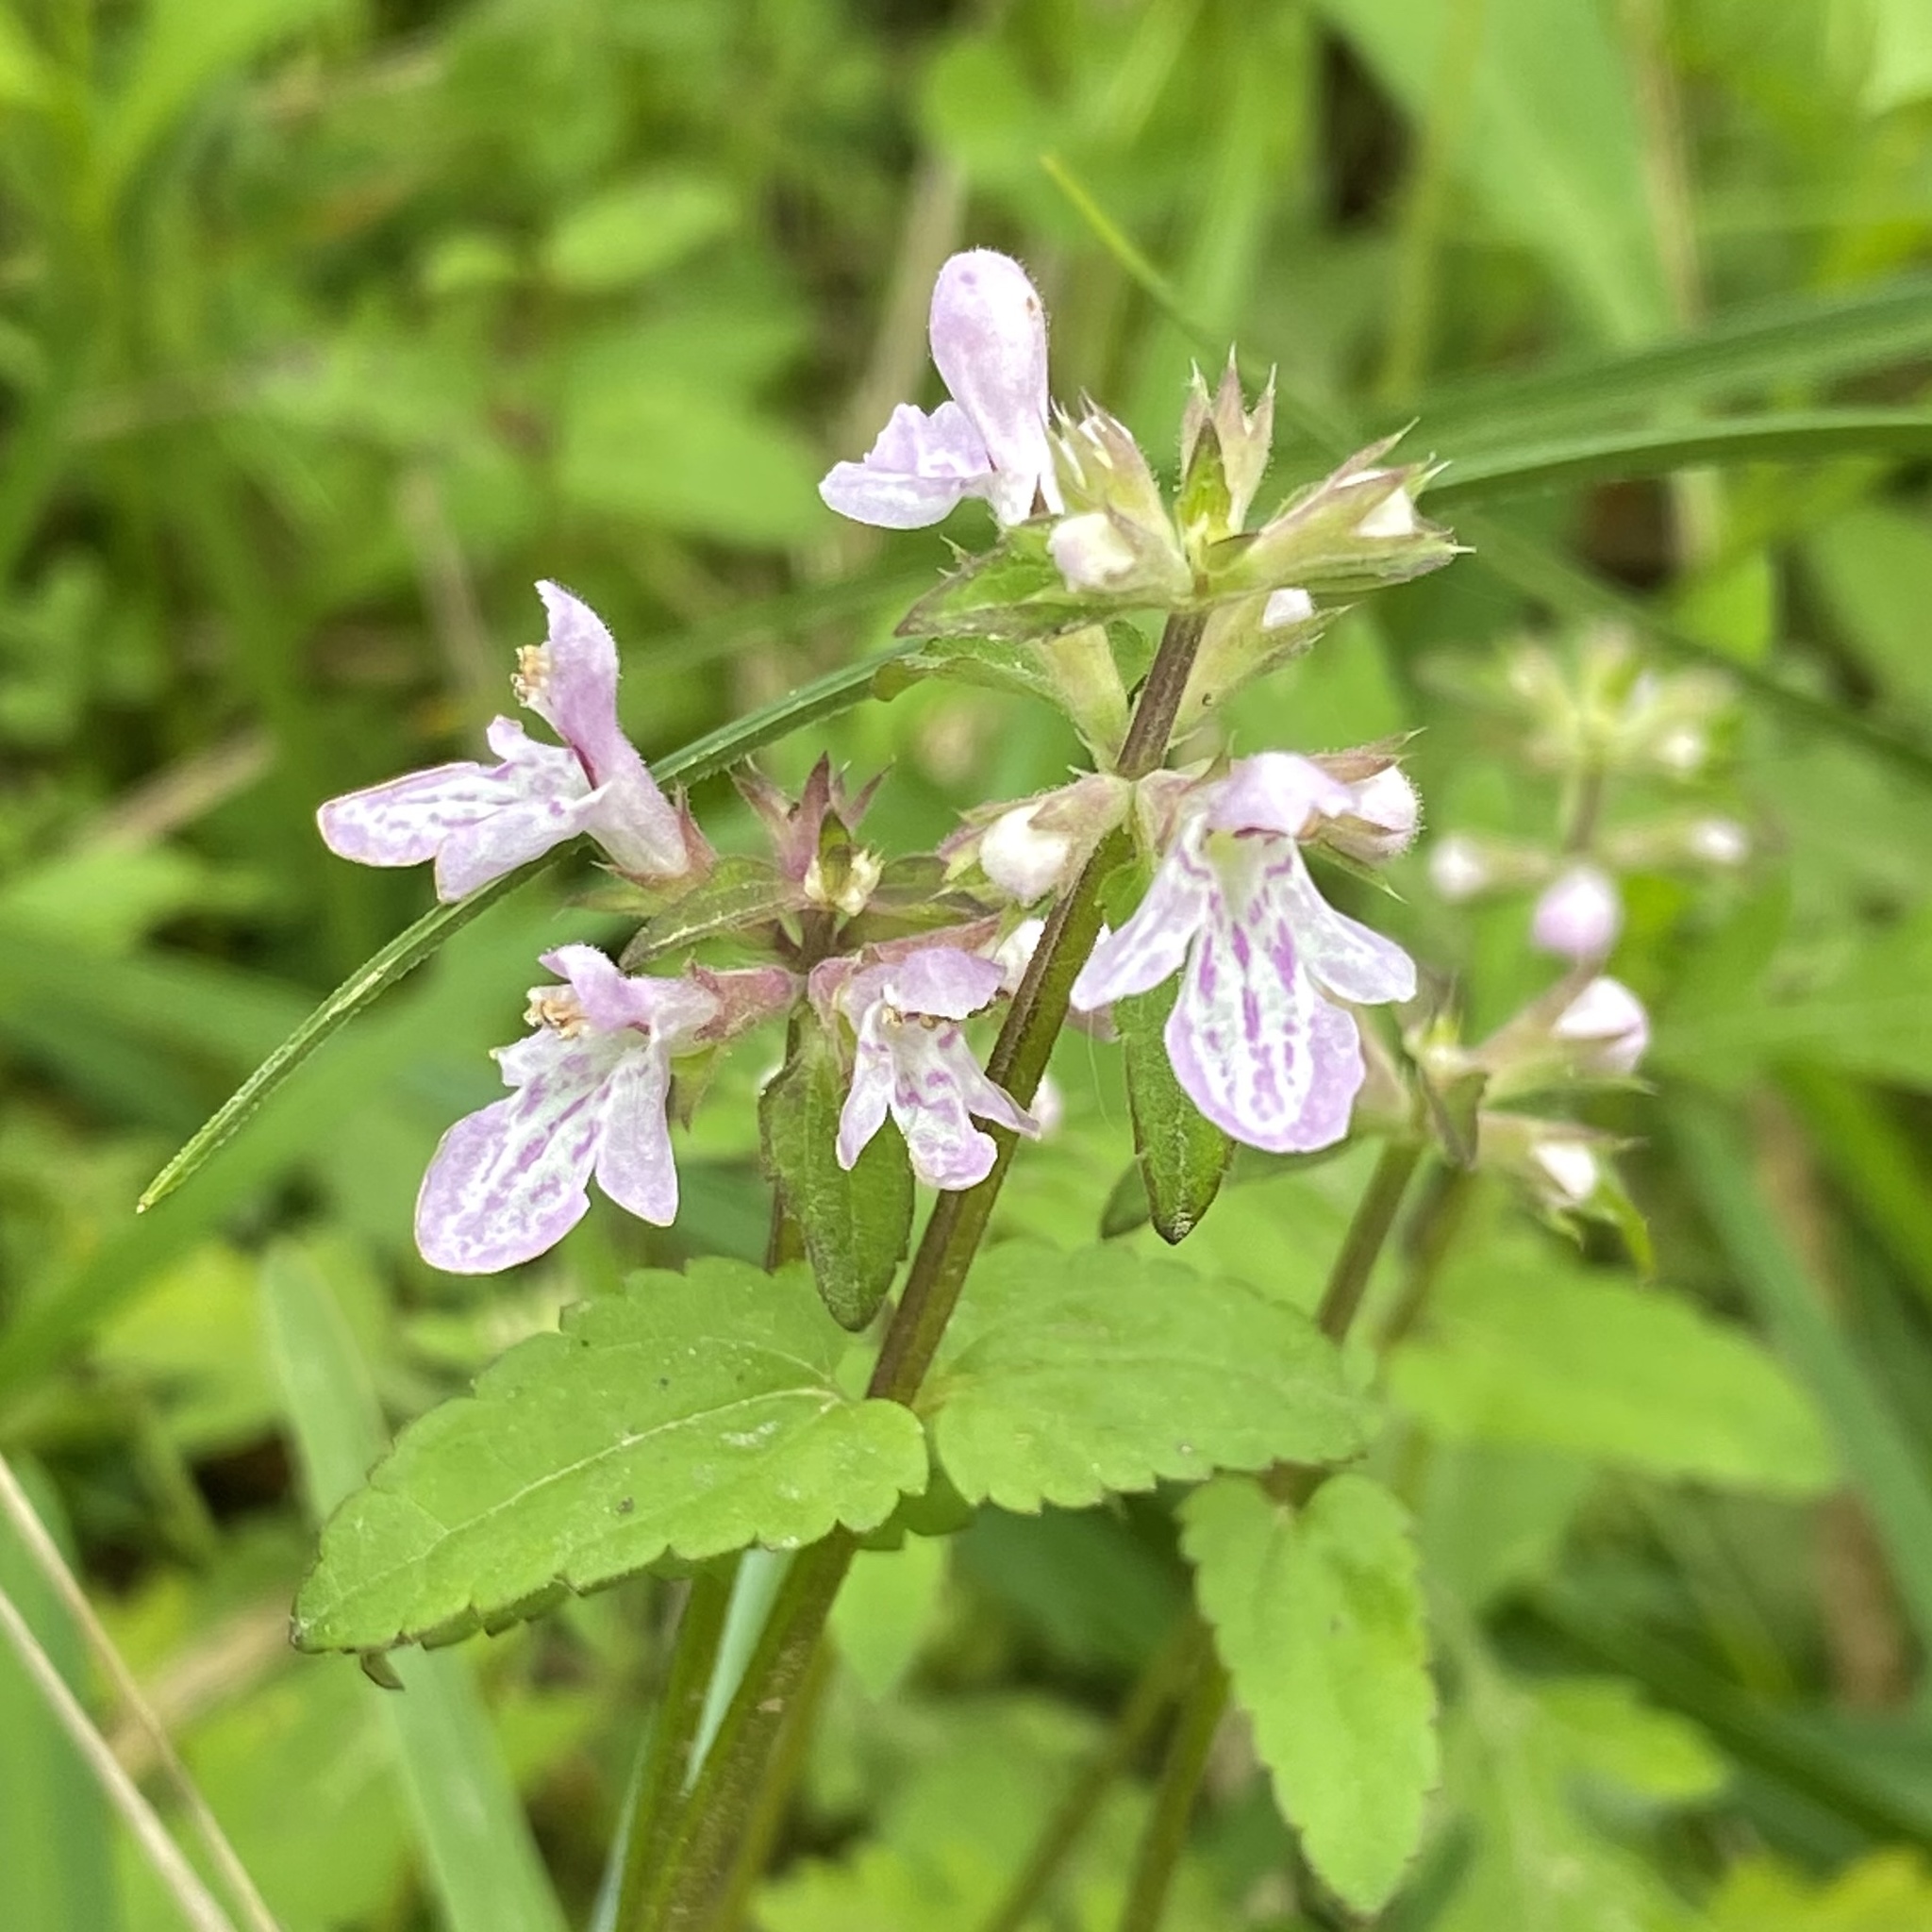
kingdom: Plantae
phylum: Tracheophyta
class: Magnoliopsida
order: Lamiales
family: Lamiaceae
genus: Stachys
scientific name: Stachys floridana
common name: Florida betony
